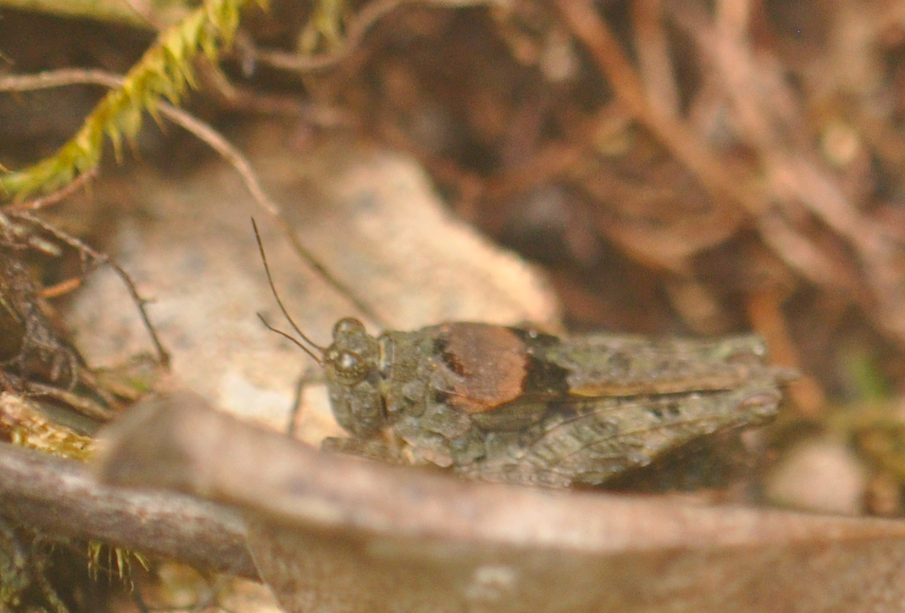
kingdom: Animalia
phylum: Arthropoda
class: Insecta
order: Orthoptera
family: Tetrigidae
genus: Paratettix
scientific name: Paratettix cinereus
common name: Madagascar common pygmy grasshopper
